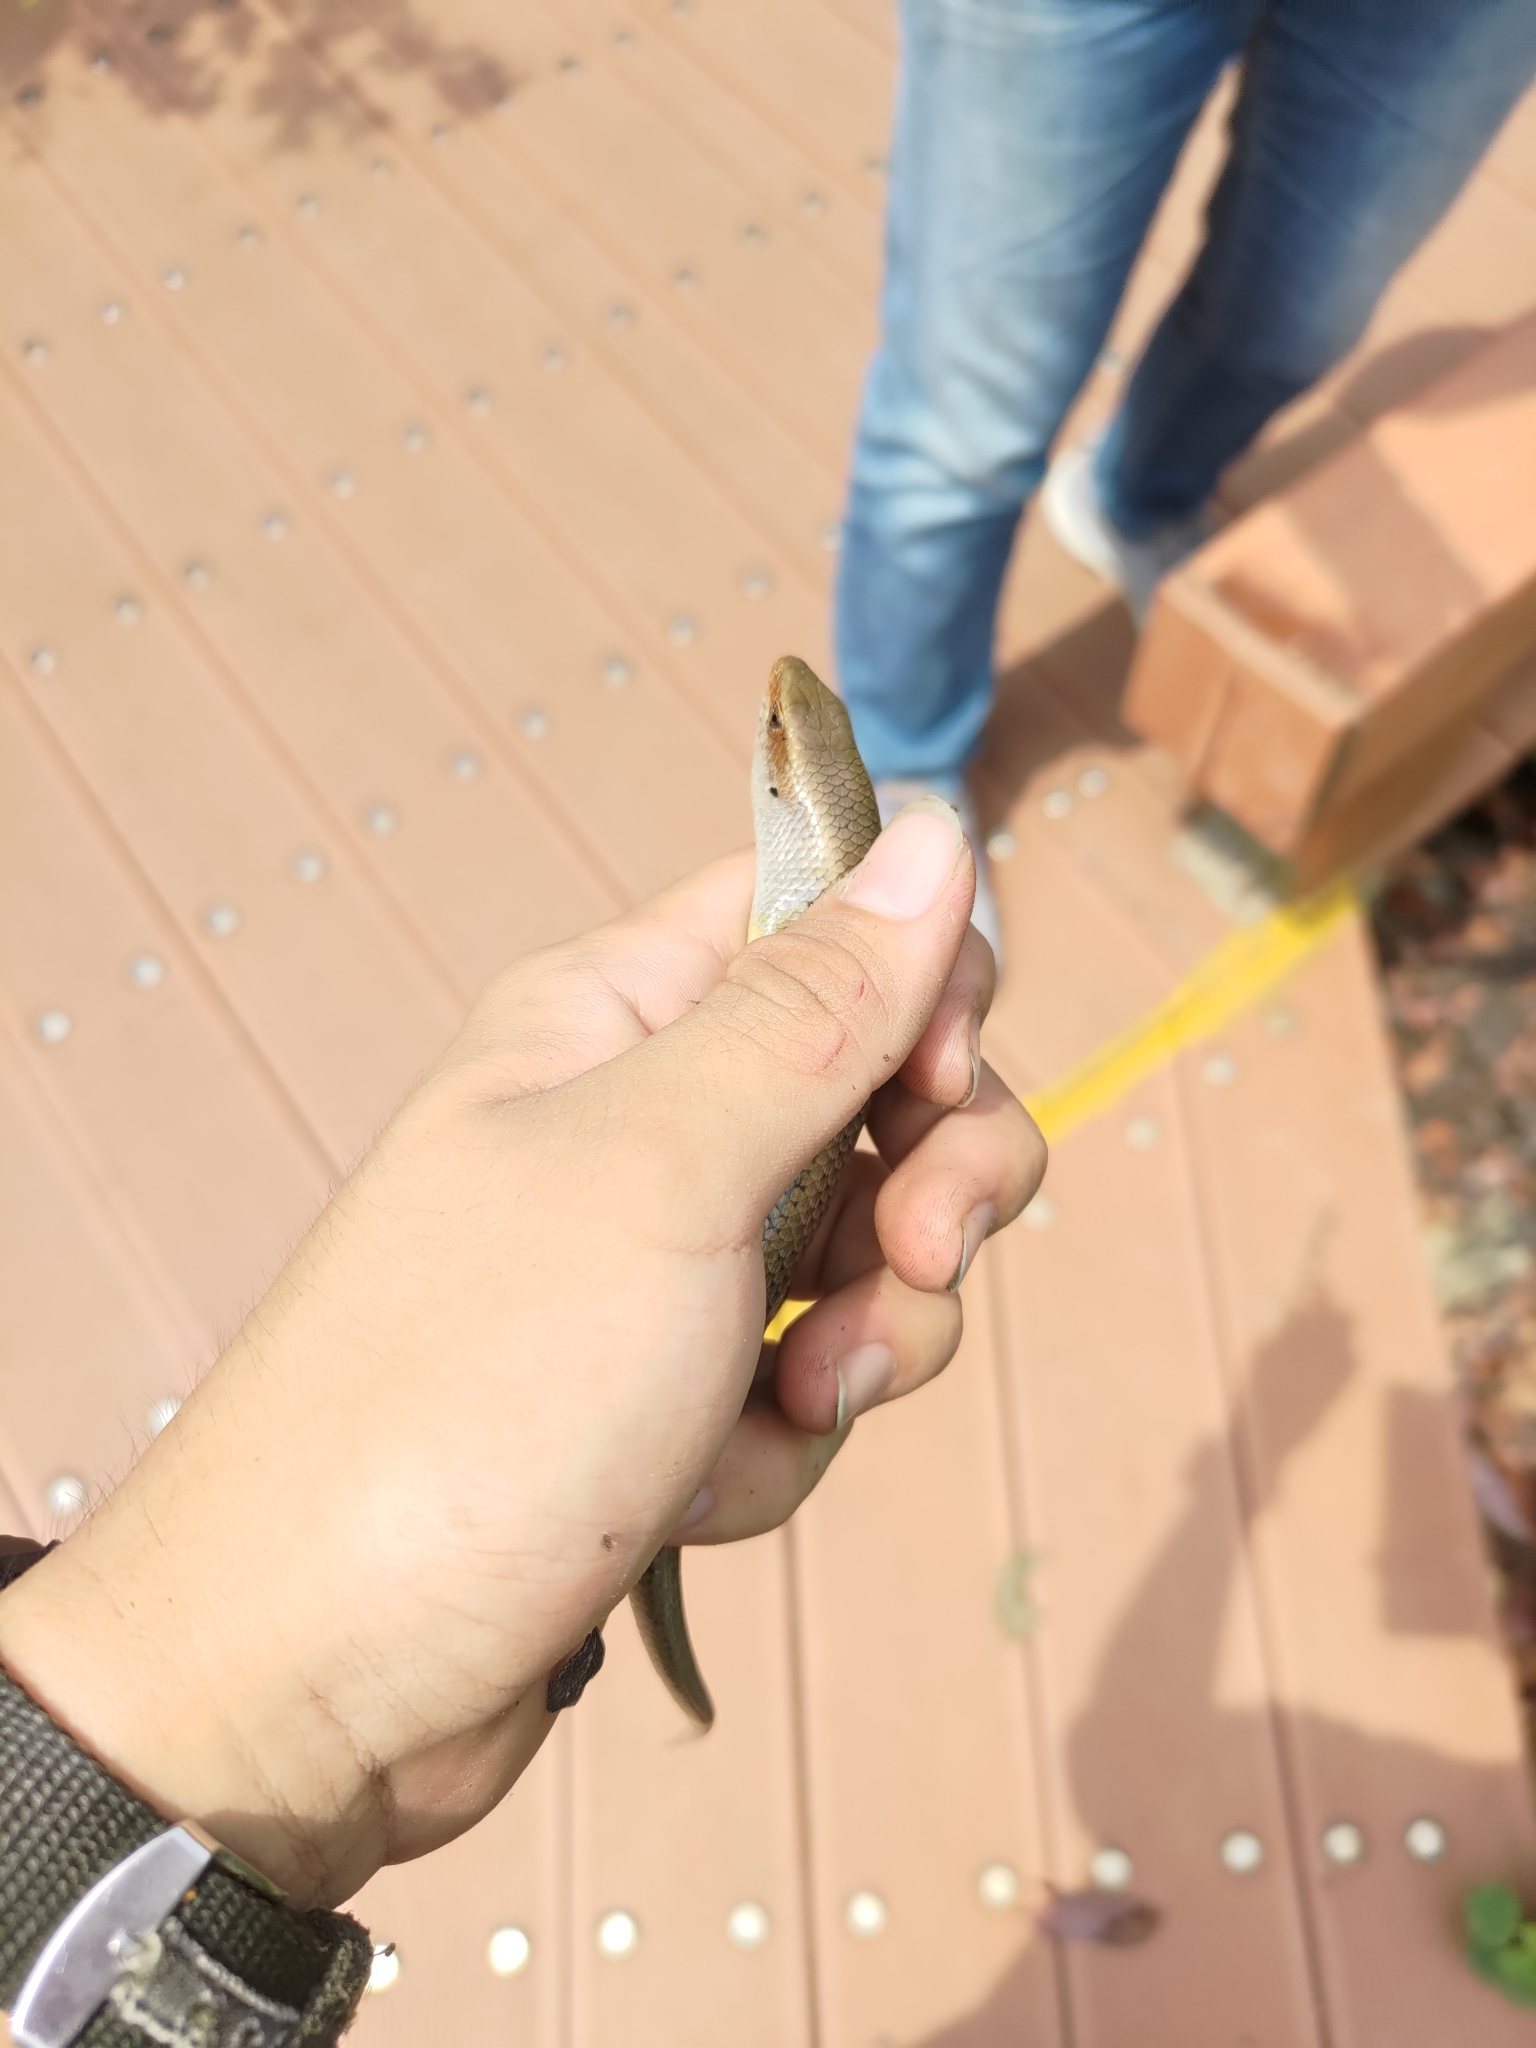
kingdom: Animalia
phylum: Chordata
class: Squamata
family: Scincidae
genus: Eutropis
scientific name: Eutropis multifasciata
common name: Common mabuya
